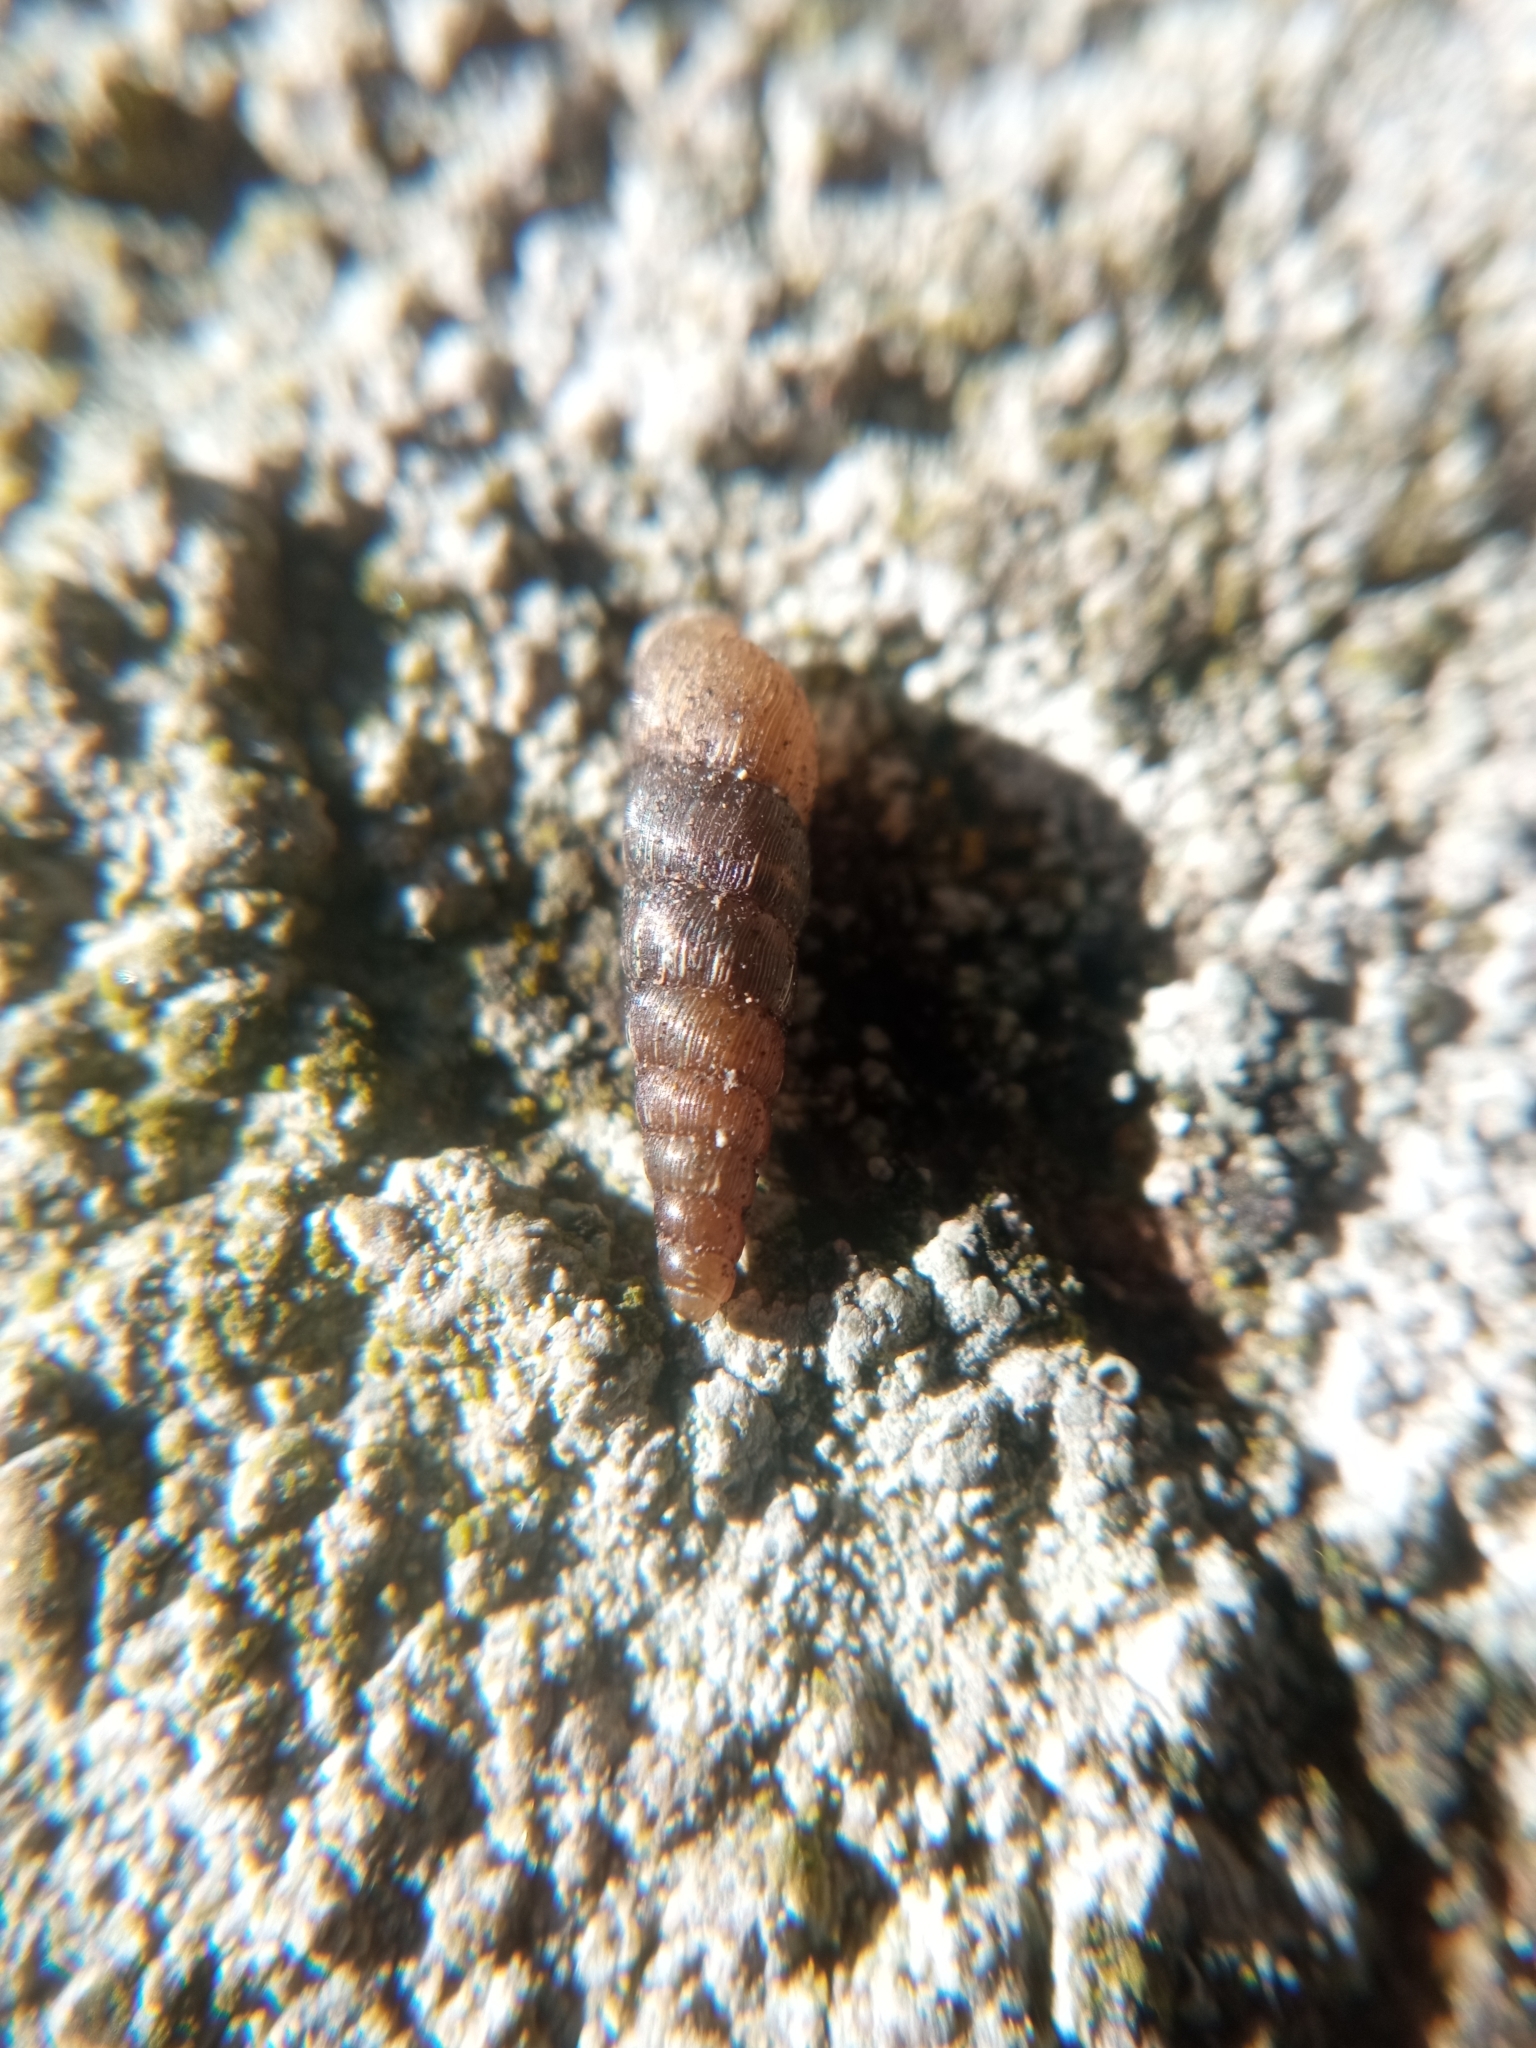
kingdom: Animalia
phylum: Mollusca
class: Gastropoda
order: Stylommatophora
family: Clausiliidae
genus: Balea
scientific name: Balea perversa
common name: Tree snail
